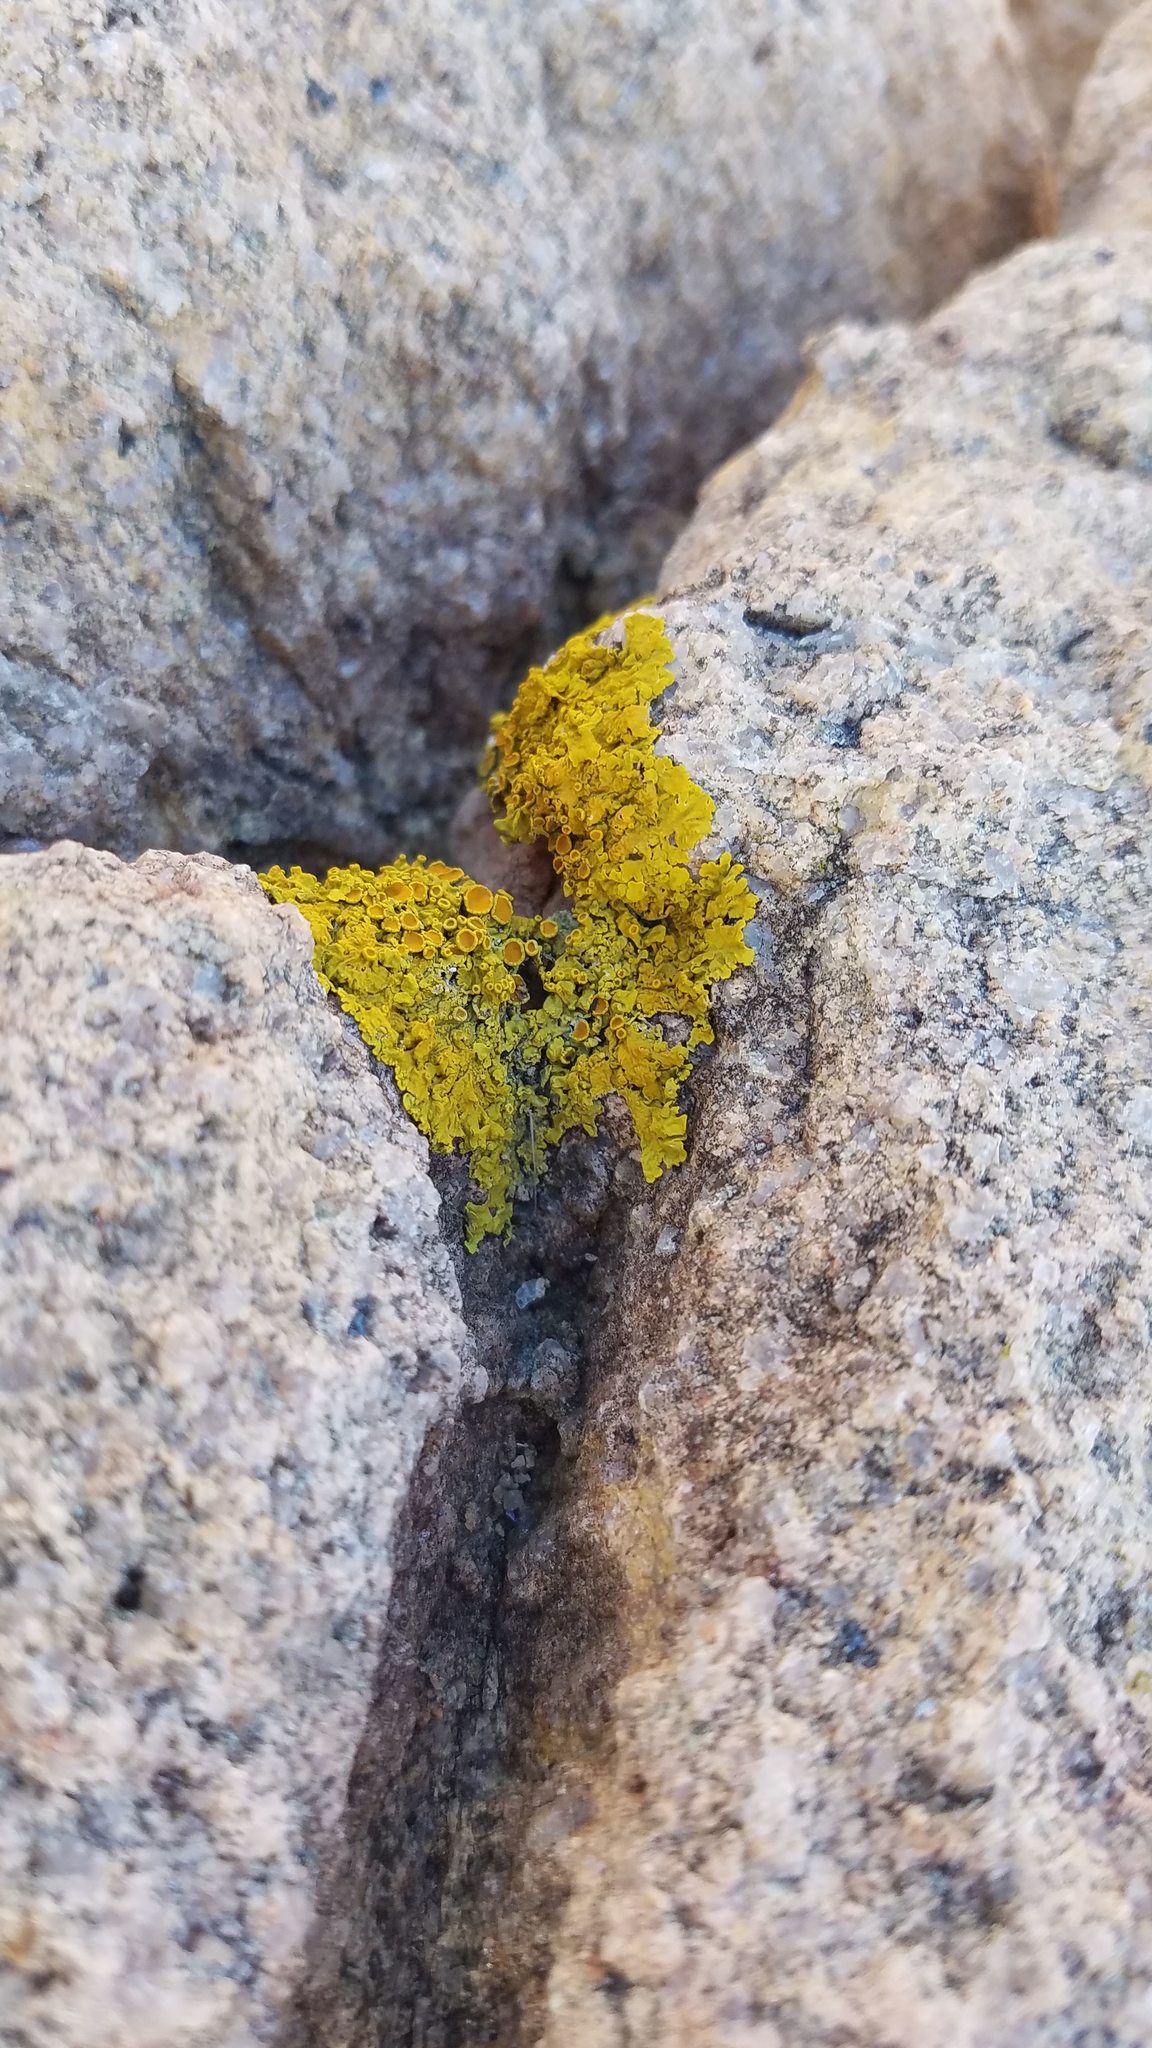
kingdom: Fungi
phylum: Ascomycota
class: Lecanoromycetes
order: Teloschistales
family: Teloschistaceae
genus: Xanthoria
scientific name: Xanthoria parietina
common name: Common orange lichen
